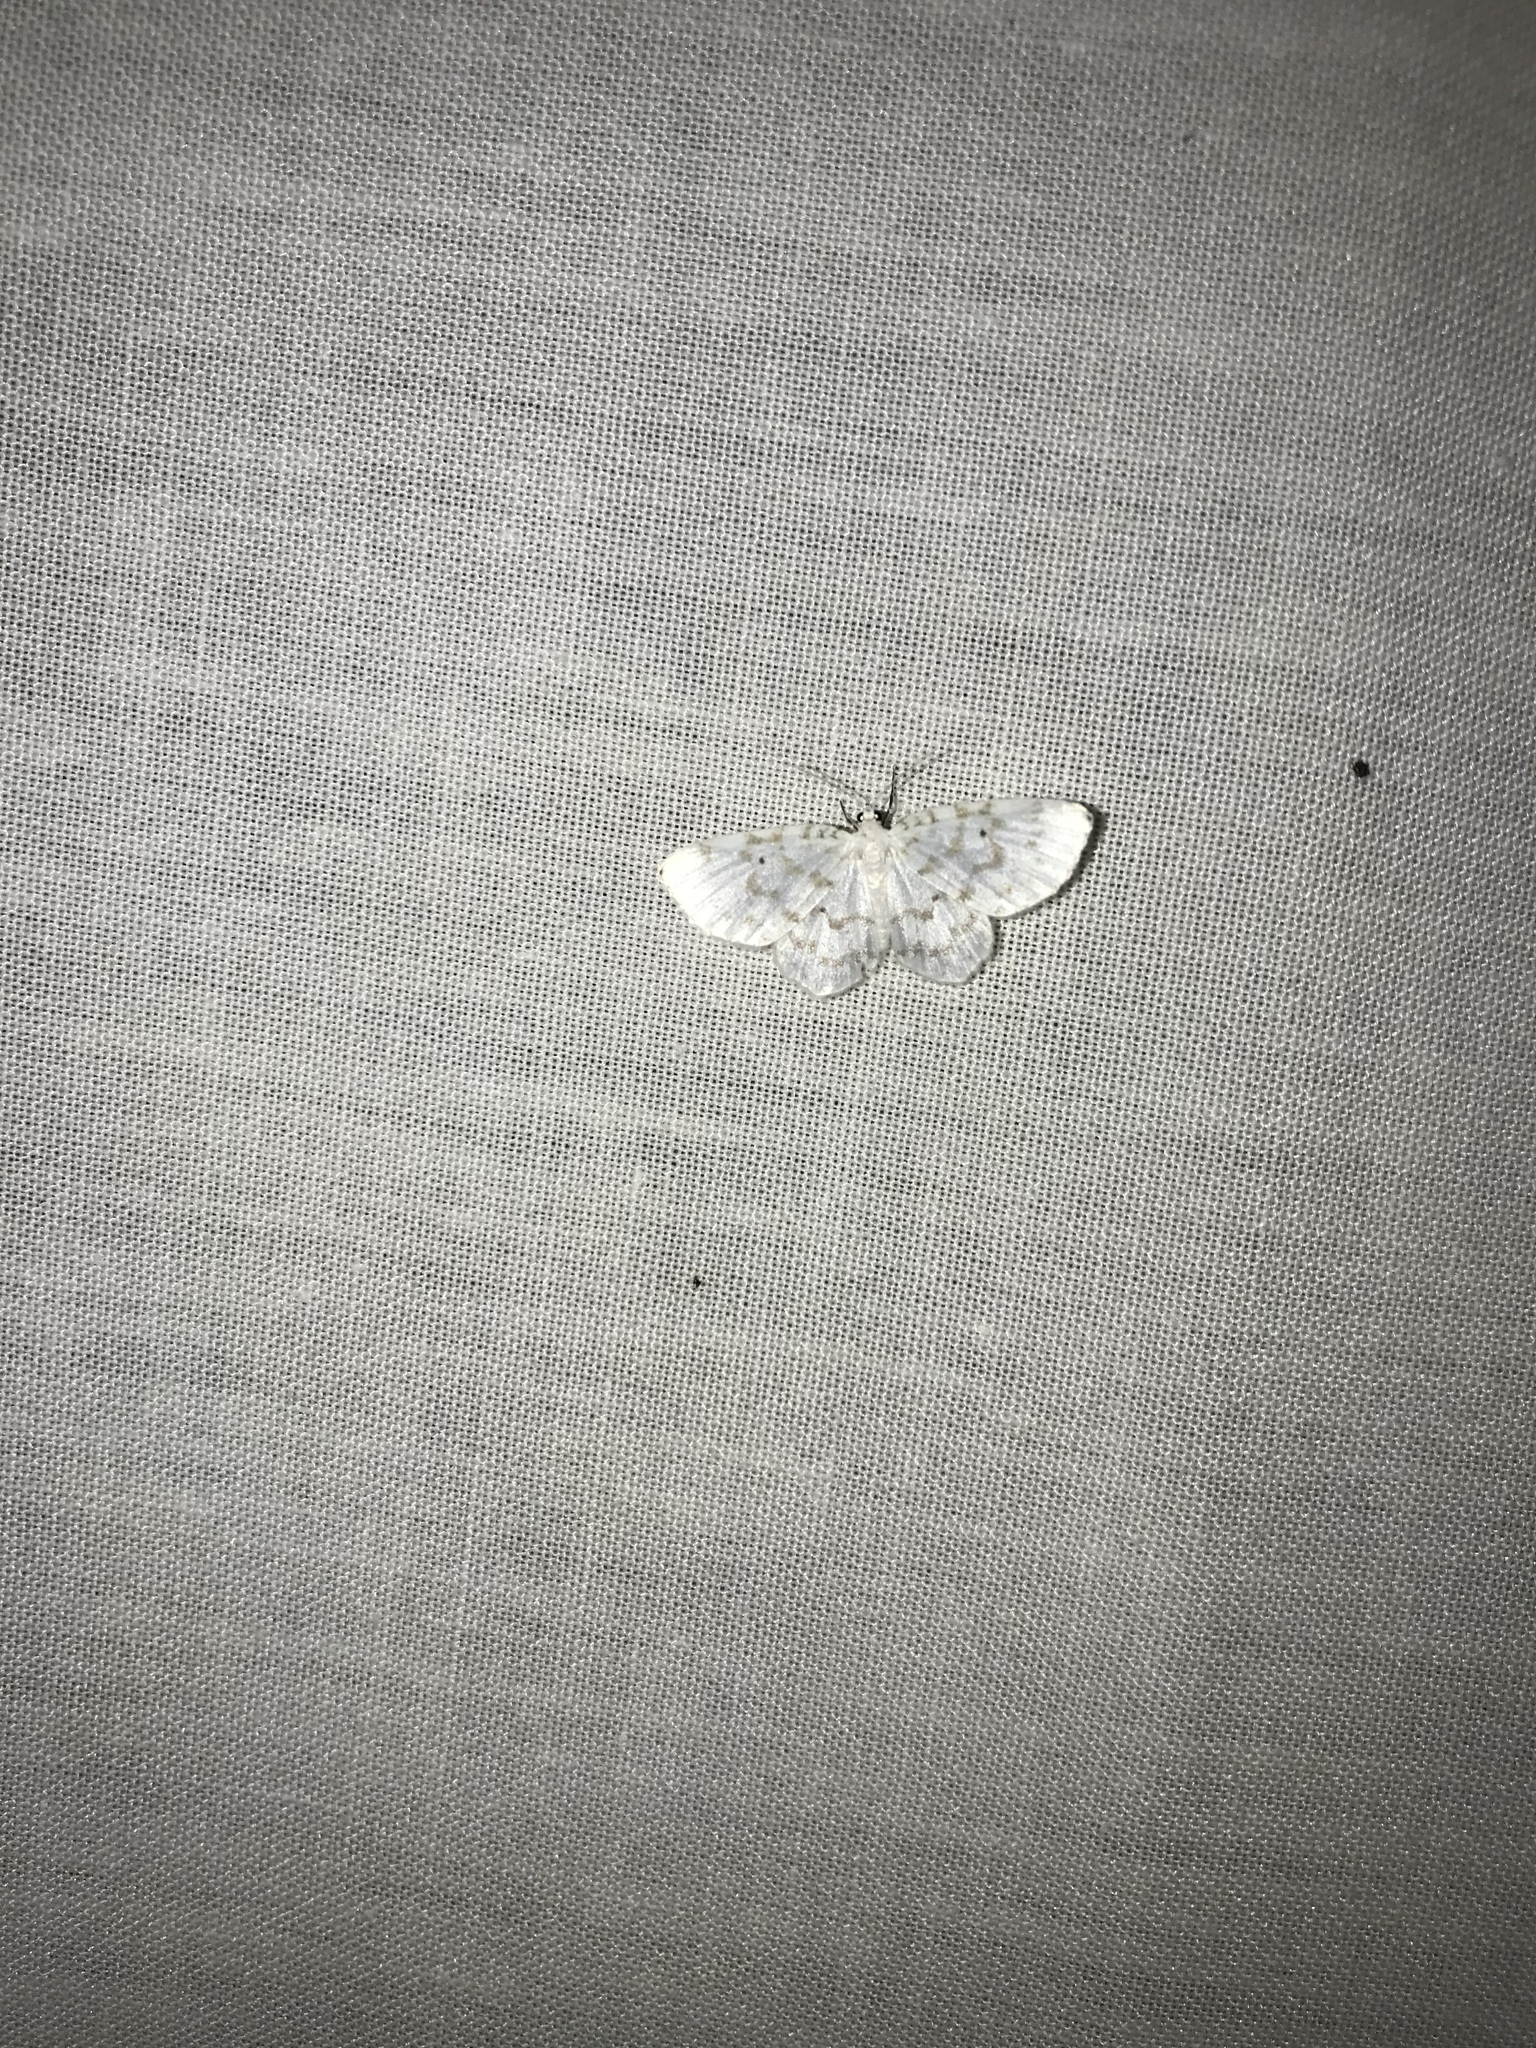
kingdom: Animalia
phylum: Arthropoda
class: Insecta
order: Lepidoptera
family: Geometridae
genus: Hydrelia
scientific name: Hydrelia albifera
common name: Fragile white carpet
